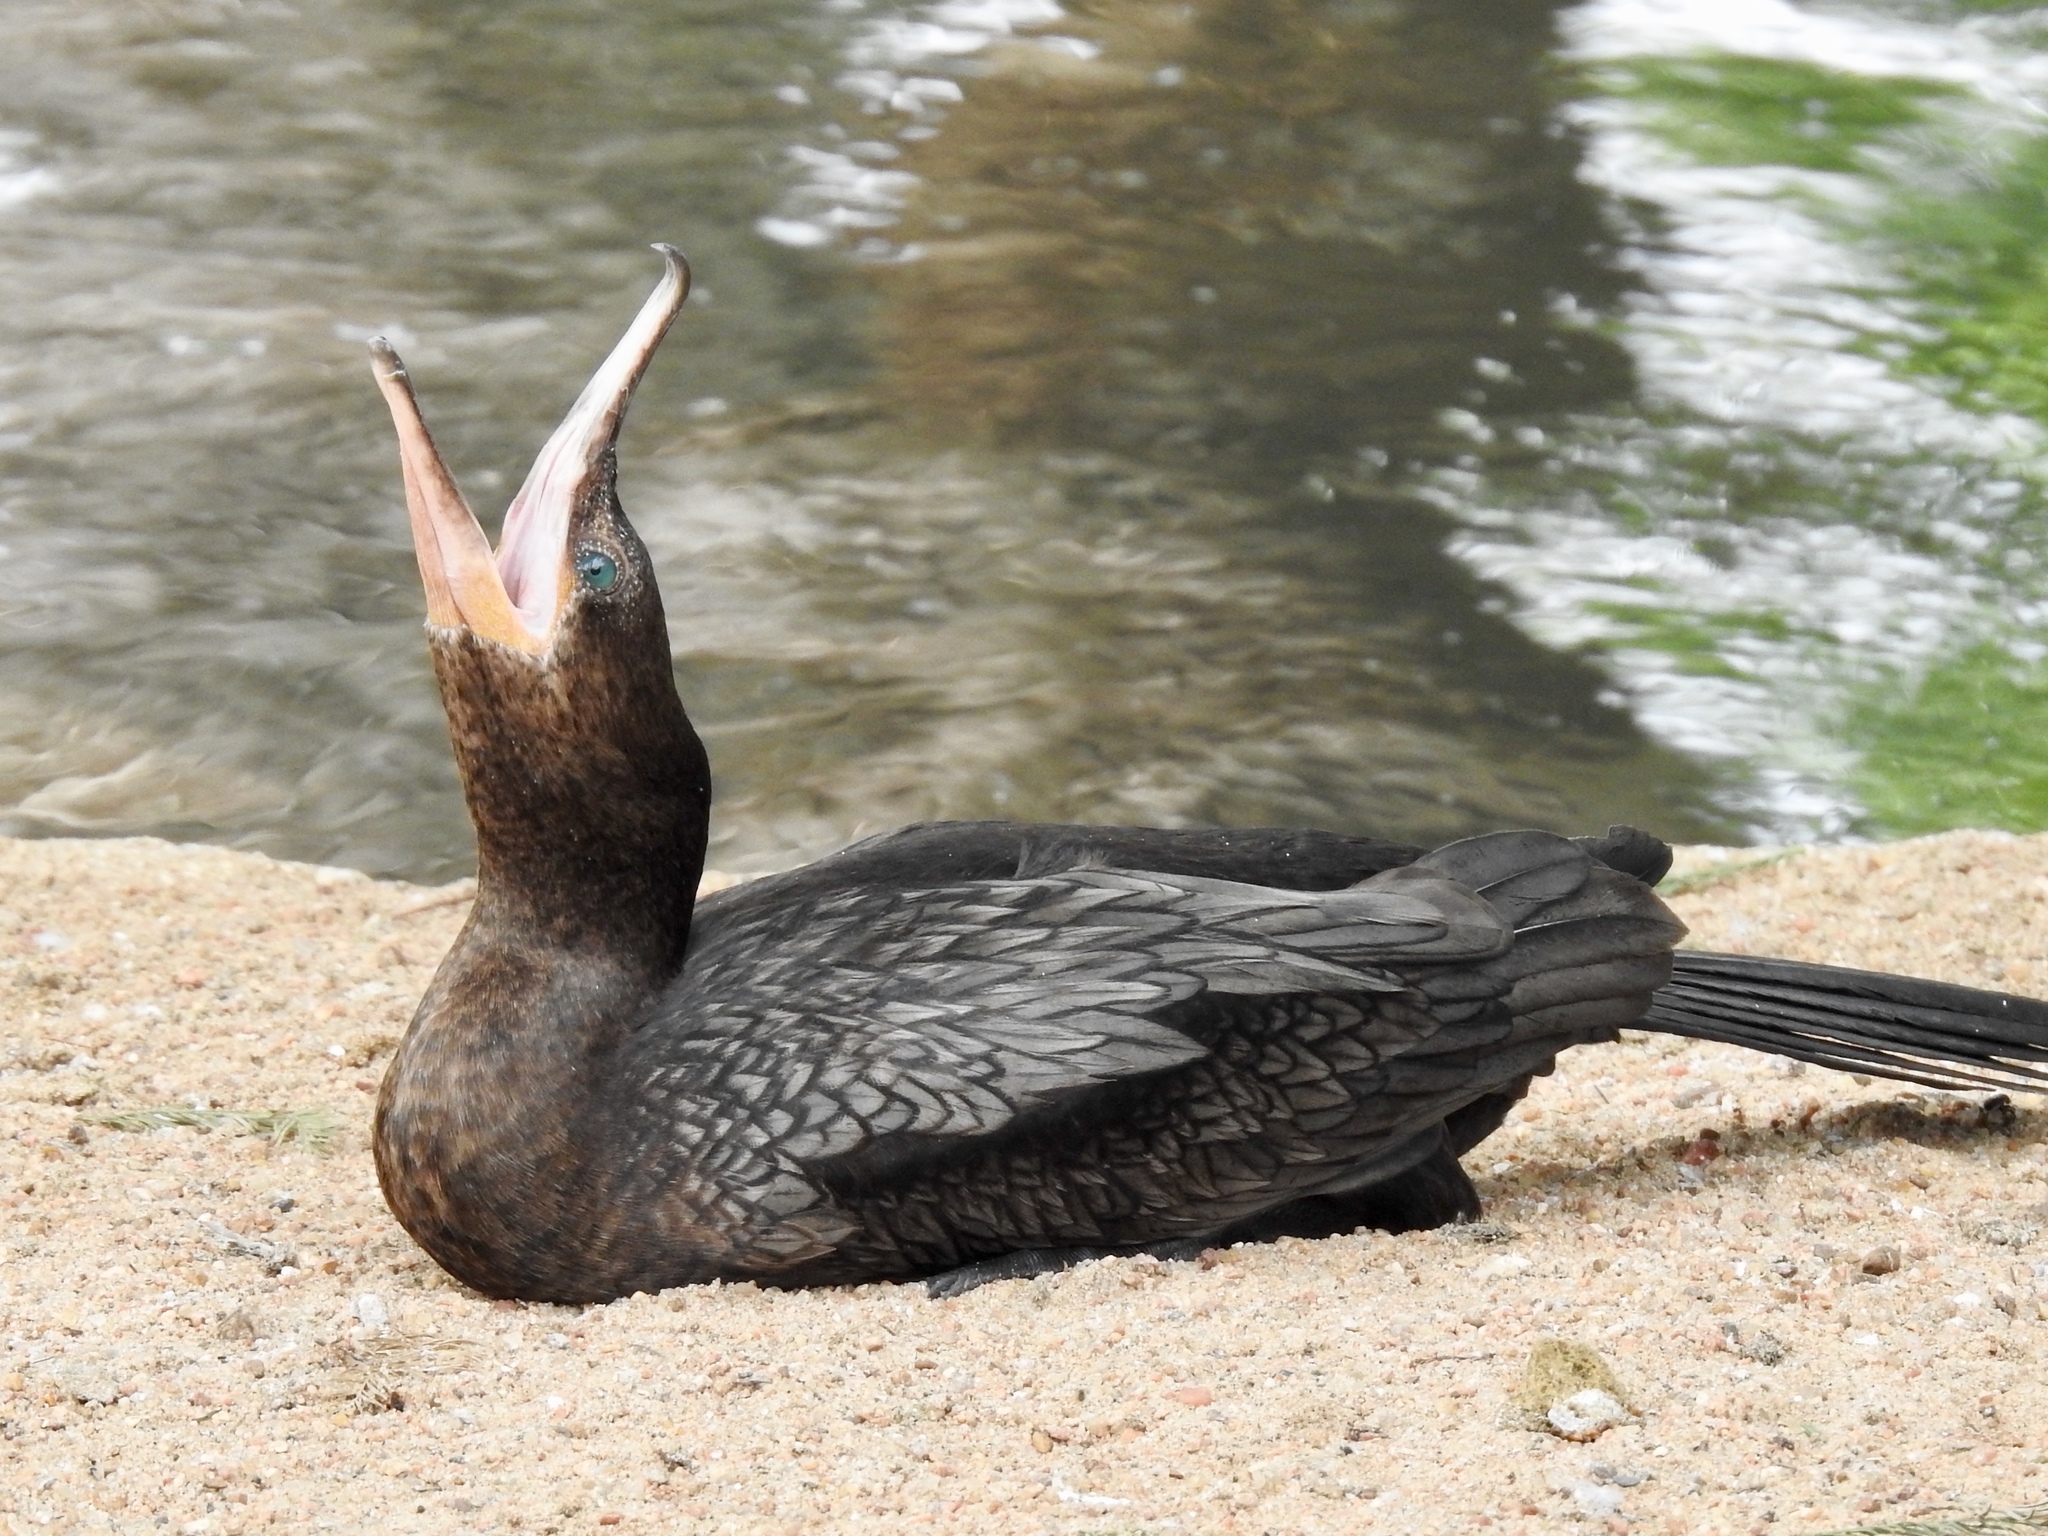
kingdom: Animalia
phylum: Chordata
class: Aves
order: Suliformes
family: Phalacrocoracidae
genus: Phalacrocorax
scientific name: Phalacrocorax brasilianus
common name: Neotropic cormorant
